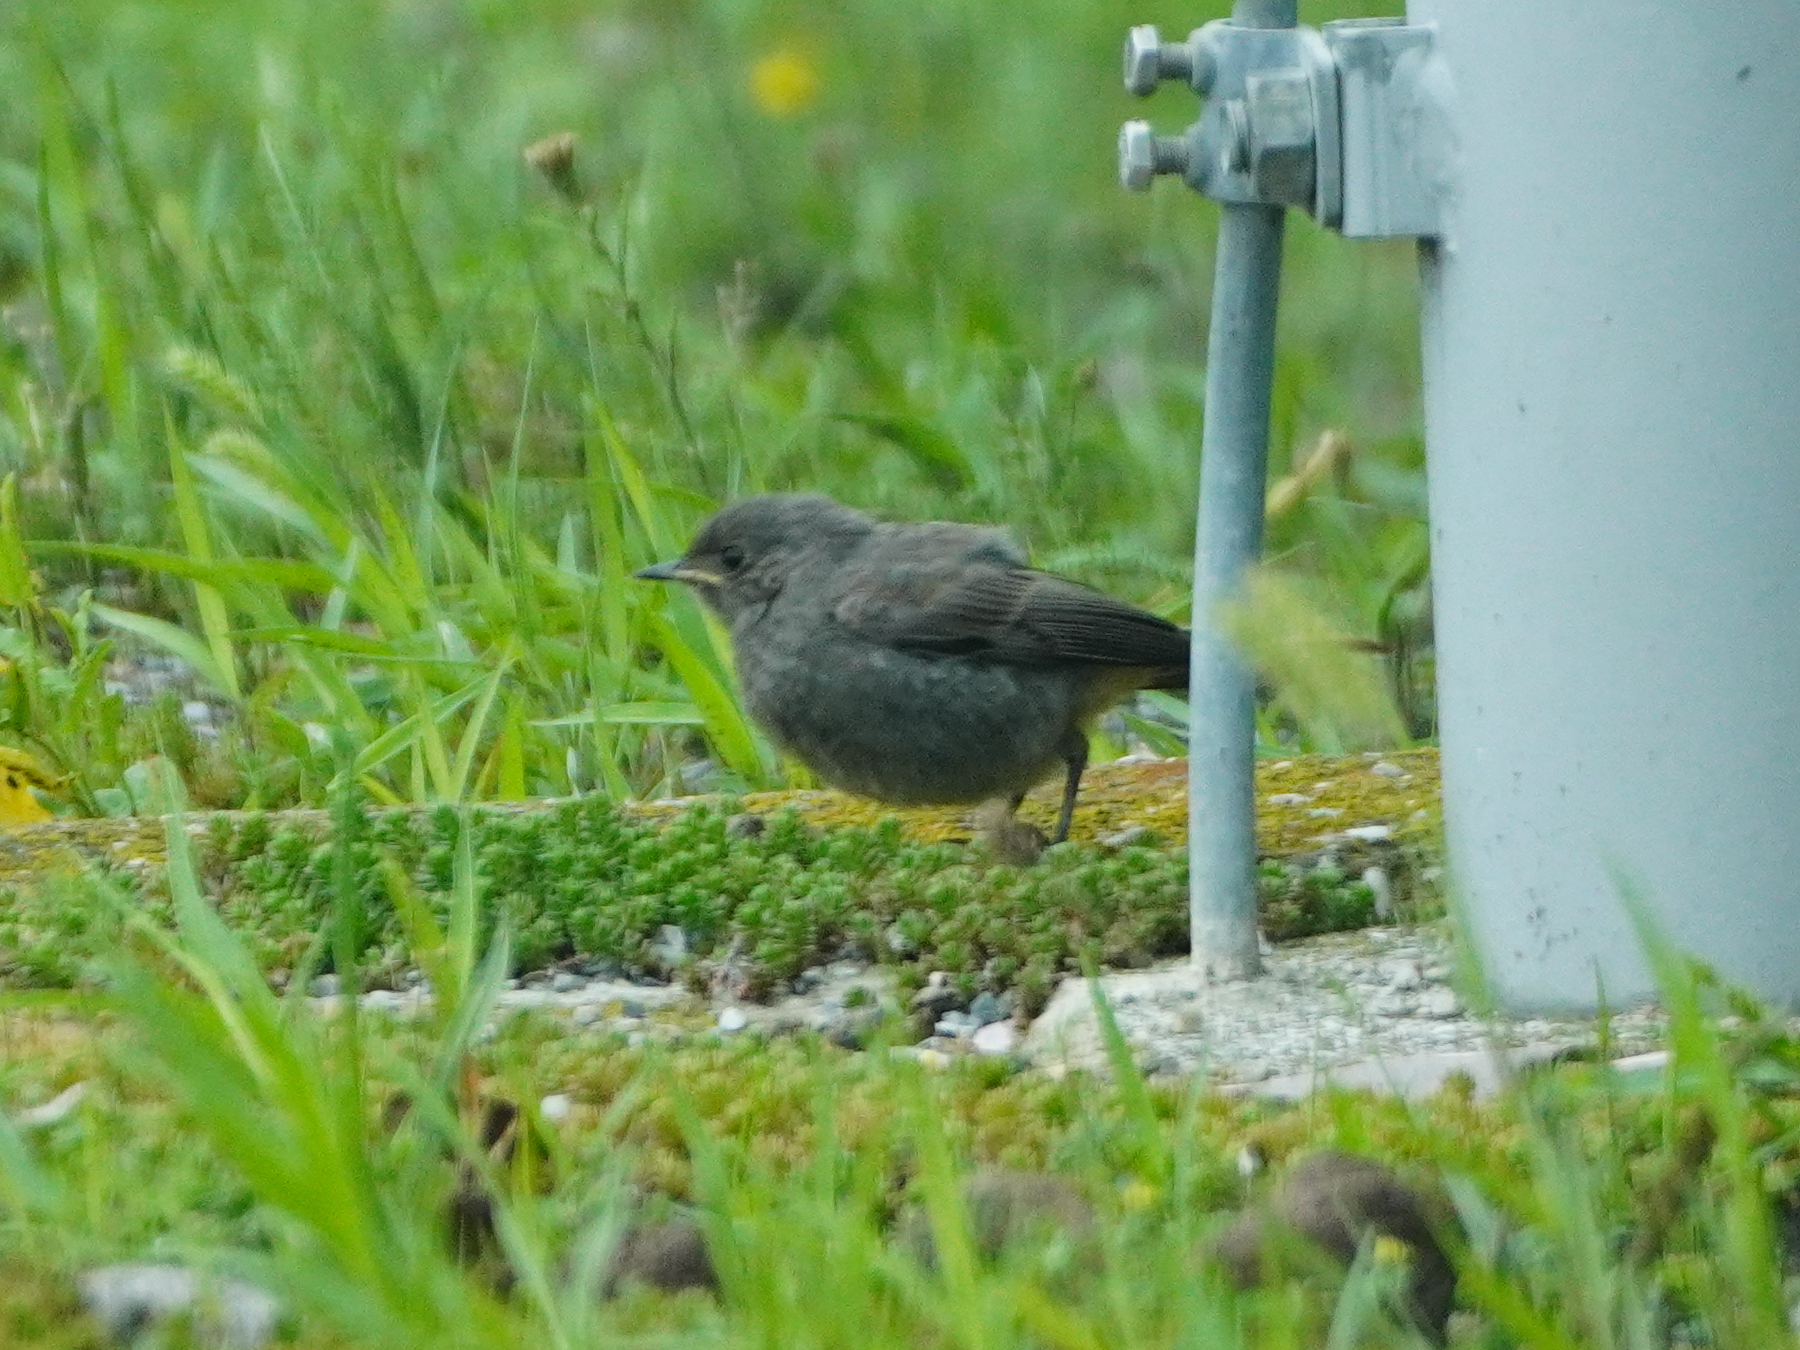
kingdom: Animalia
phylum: Chordata
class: Aves
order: Passeriformes
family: Muscicapidae
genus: Phoenicurus
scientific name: Phoenicurus ochruros
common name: Black redstart
